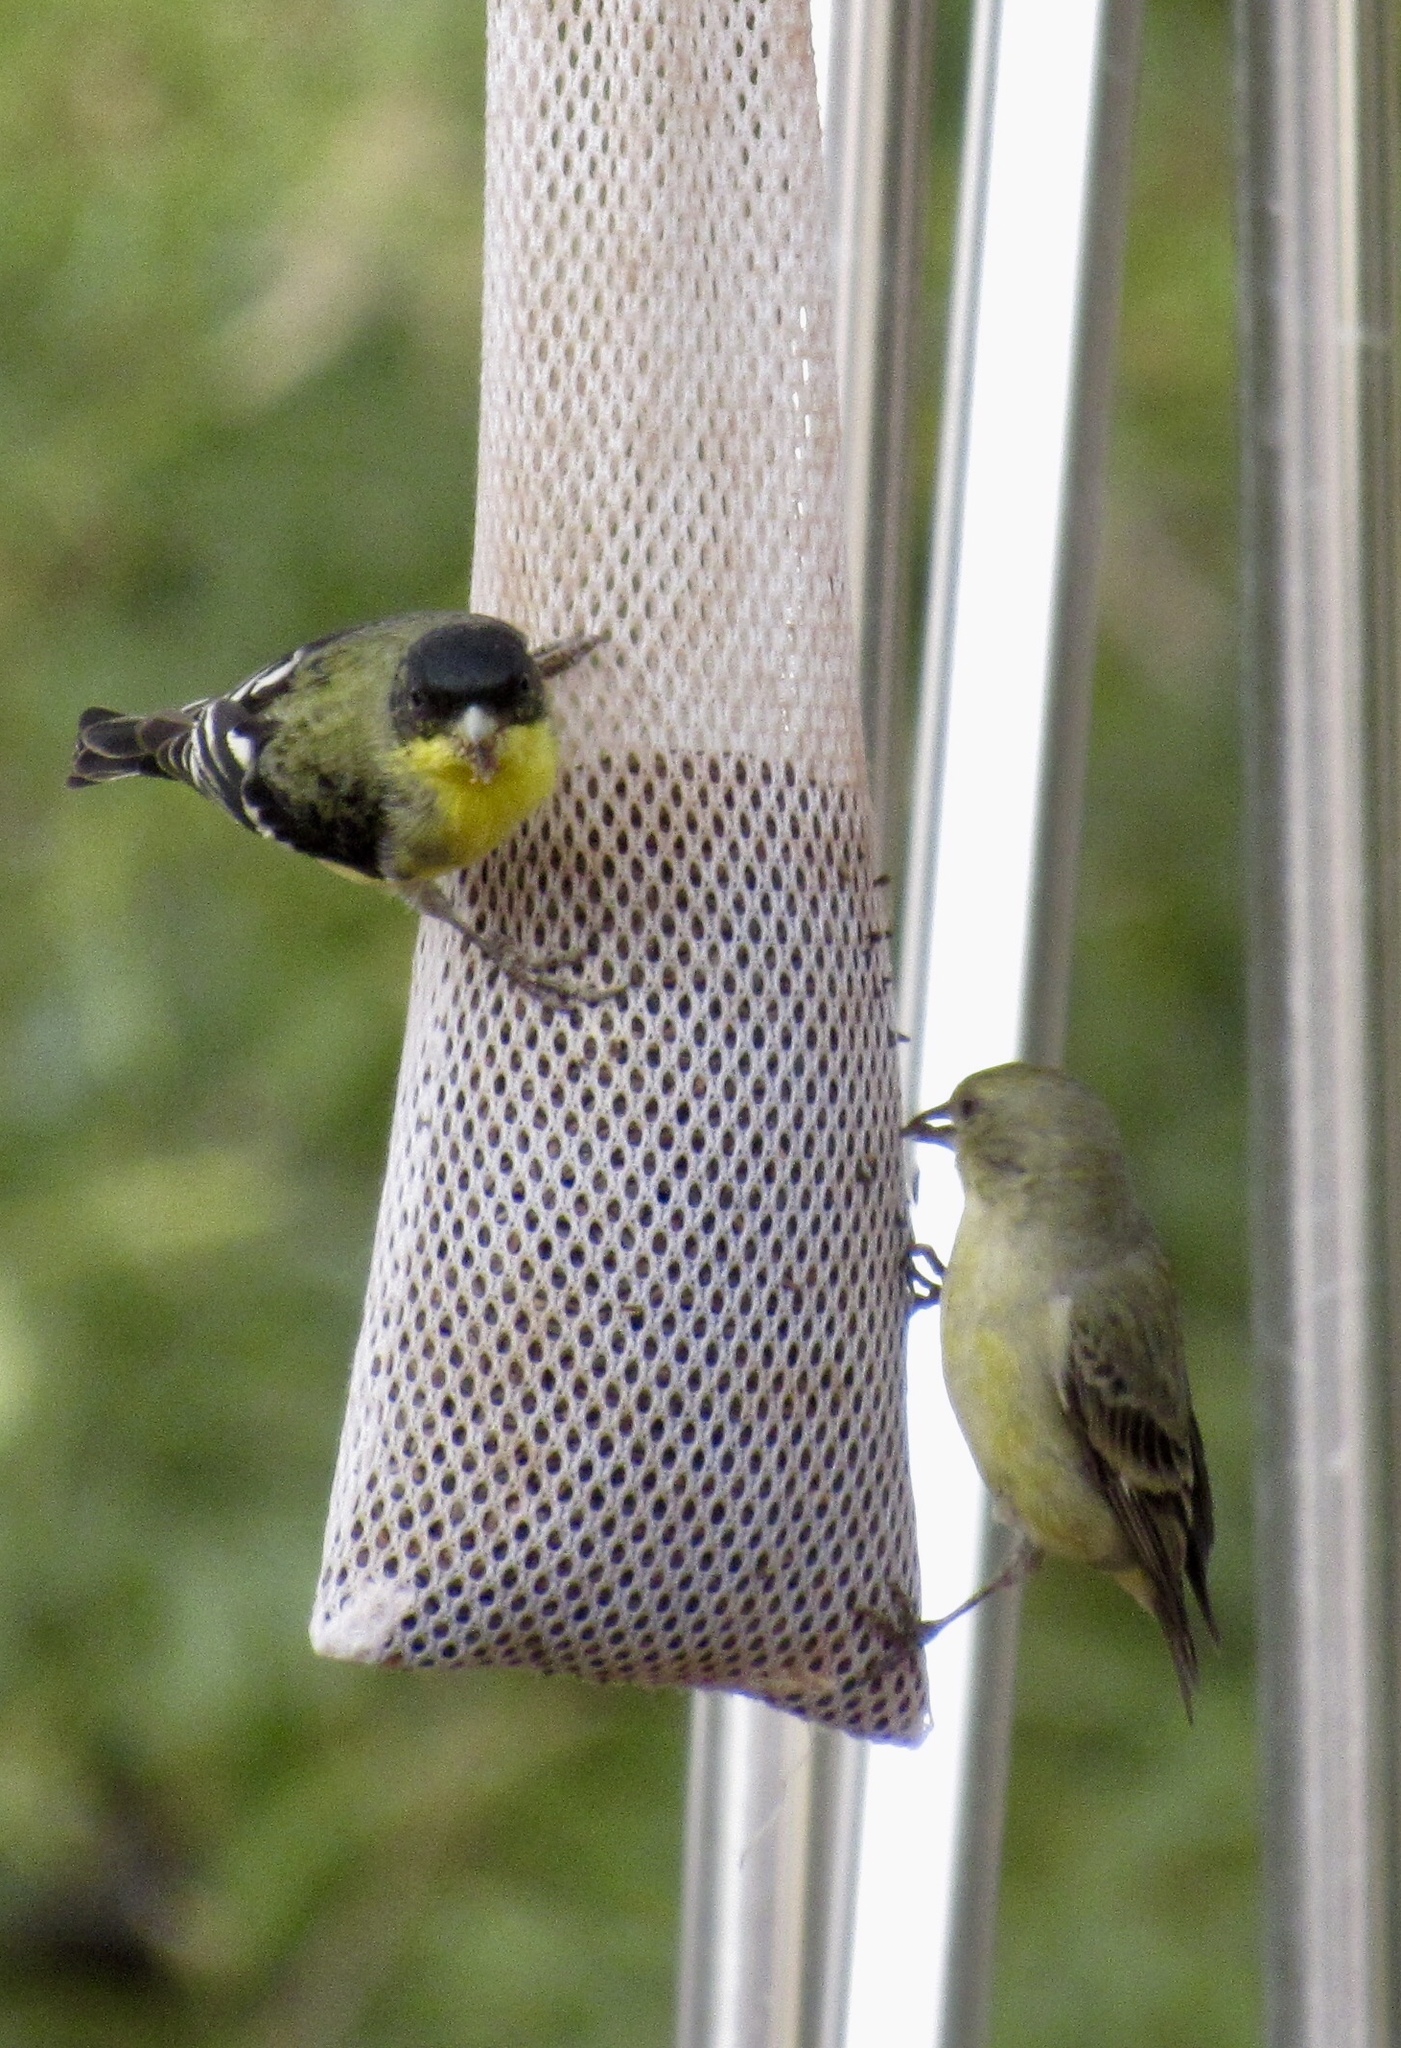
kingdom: Animalia
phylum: Chordata
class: Aves
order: Passeriformes
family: Fringillidae
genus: Spinus
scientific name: Spinus psaltria
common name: Lesser goldfinch
